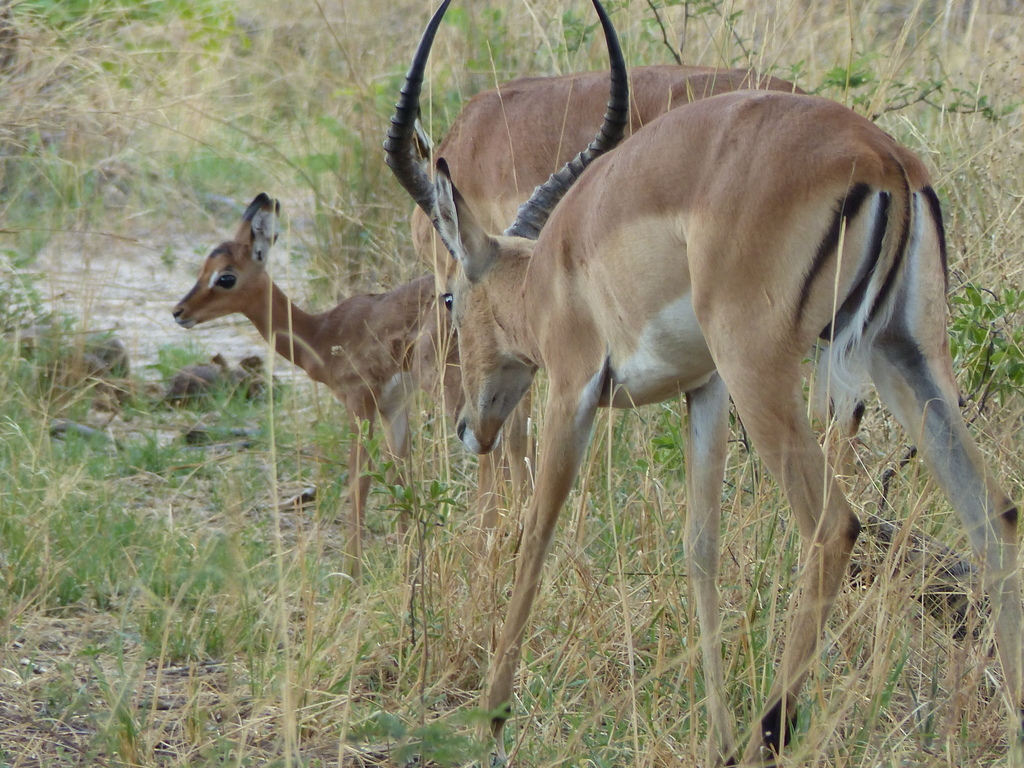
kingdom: Animalia
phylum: Chordata
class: Mammalia
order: Artiodactyla
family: Bovidae
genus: Aepyceros
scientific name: Aepyceros melampus
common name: Impala
